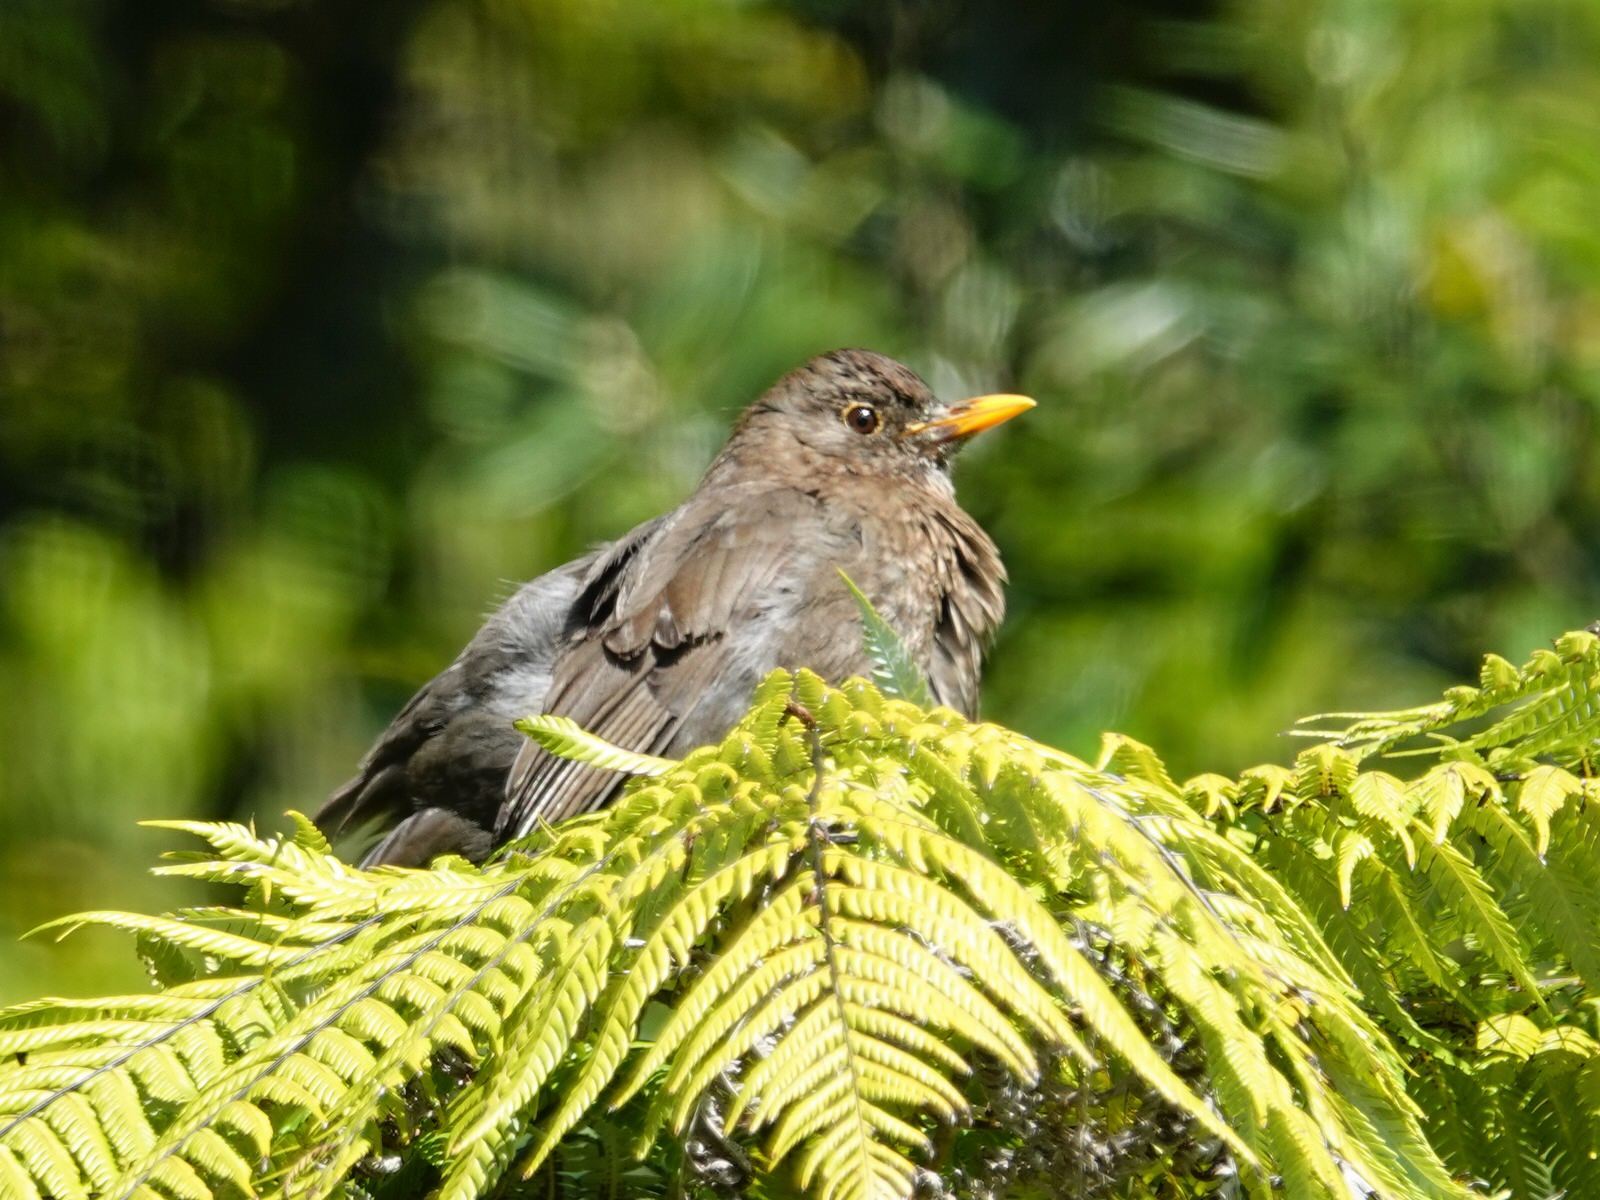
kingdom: Animalia
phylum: Chordata
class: Aves
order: Passeriformes
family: Turdidae
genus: Turdus
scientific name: Turdus merula
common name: Common blackbird
